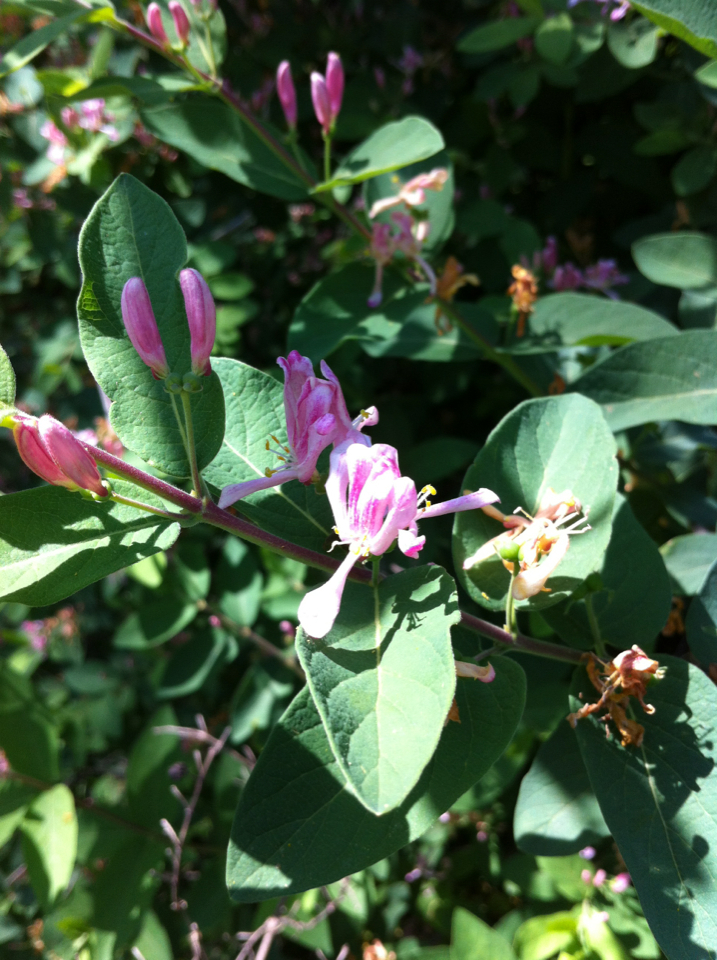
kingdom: Plantae
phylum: Tracheophyta
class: Magnoliopsida
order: Dipsacales
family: Caprifoliaceae
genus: Lonicera
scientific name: Lonicera tatarica
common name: Tatarian honeysuckle
